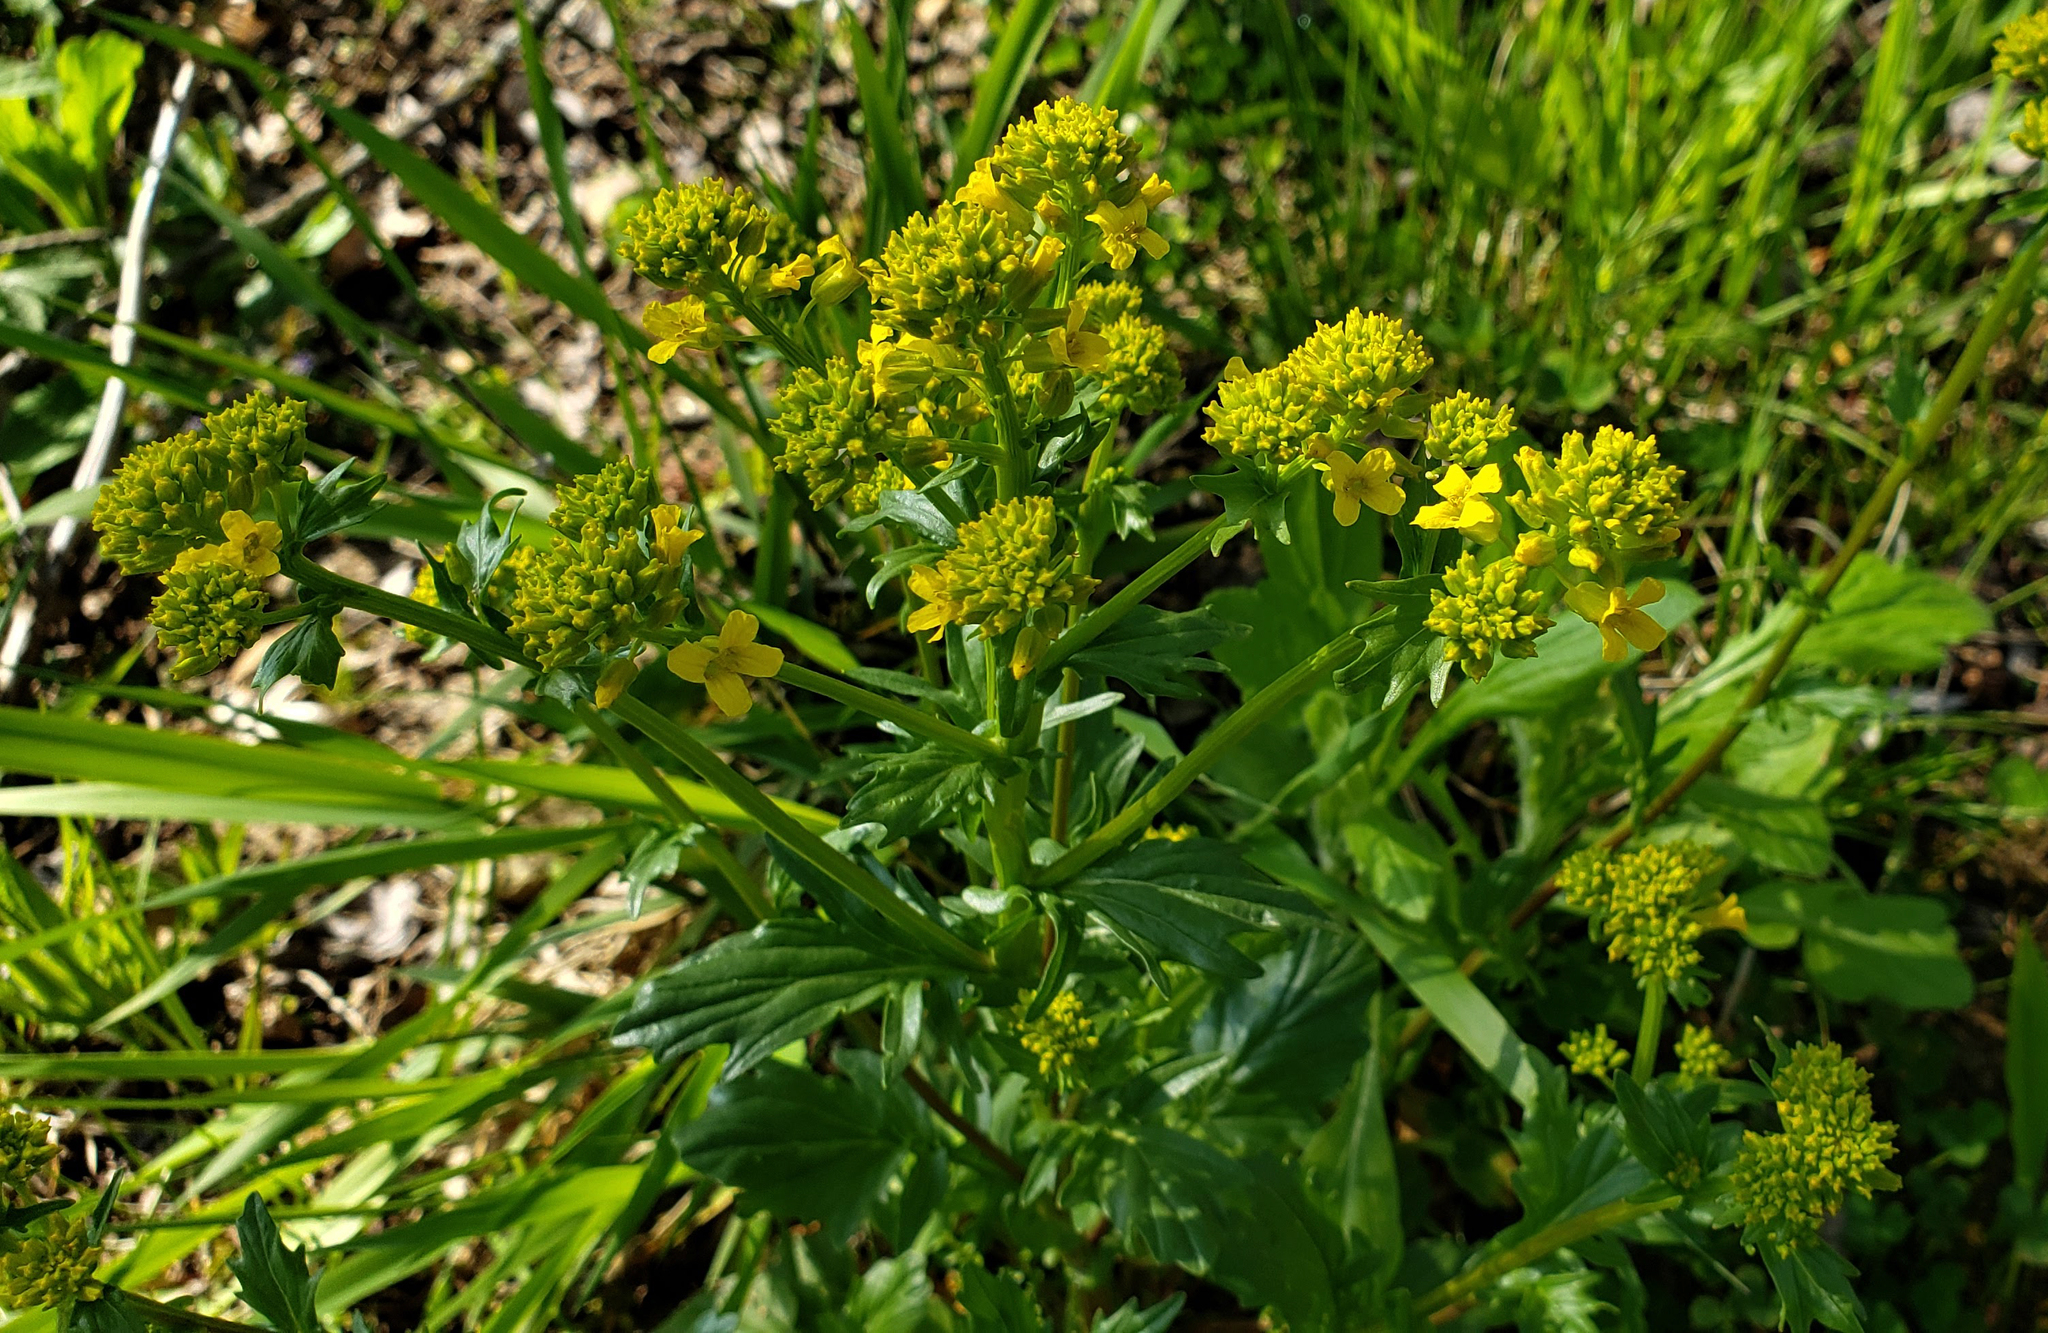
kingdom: Plantae
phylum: Tracheophyta
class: Magnoliopsida
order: Brassicales
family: Brassicaceae
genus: Barbarea
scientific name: Barbarea orthoceras
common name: American wintercress
